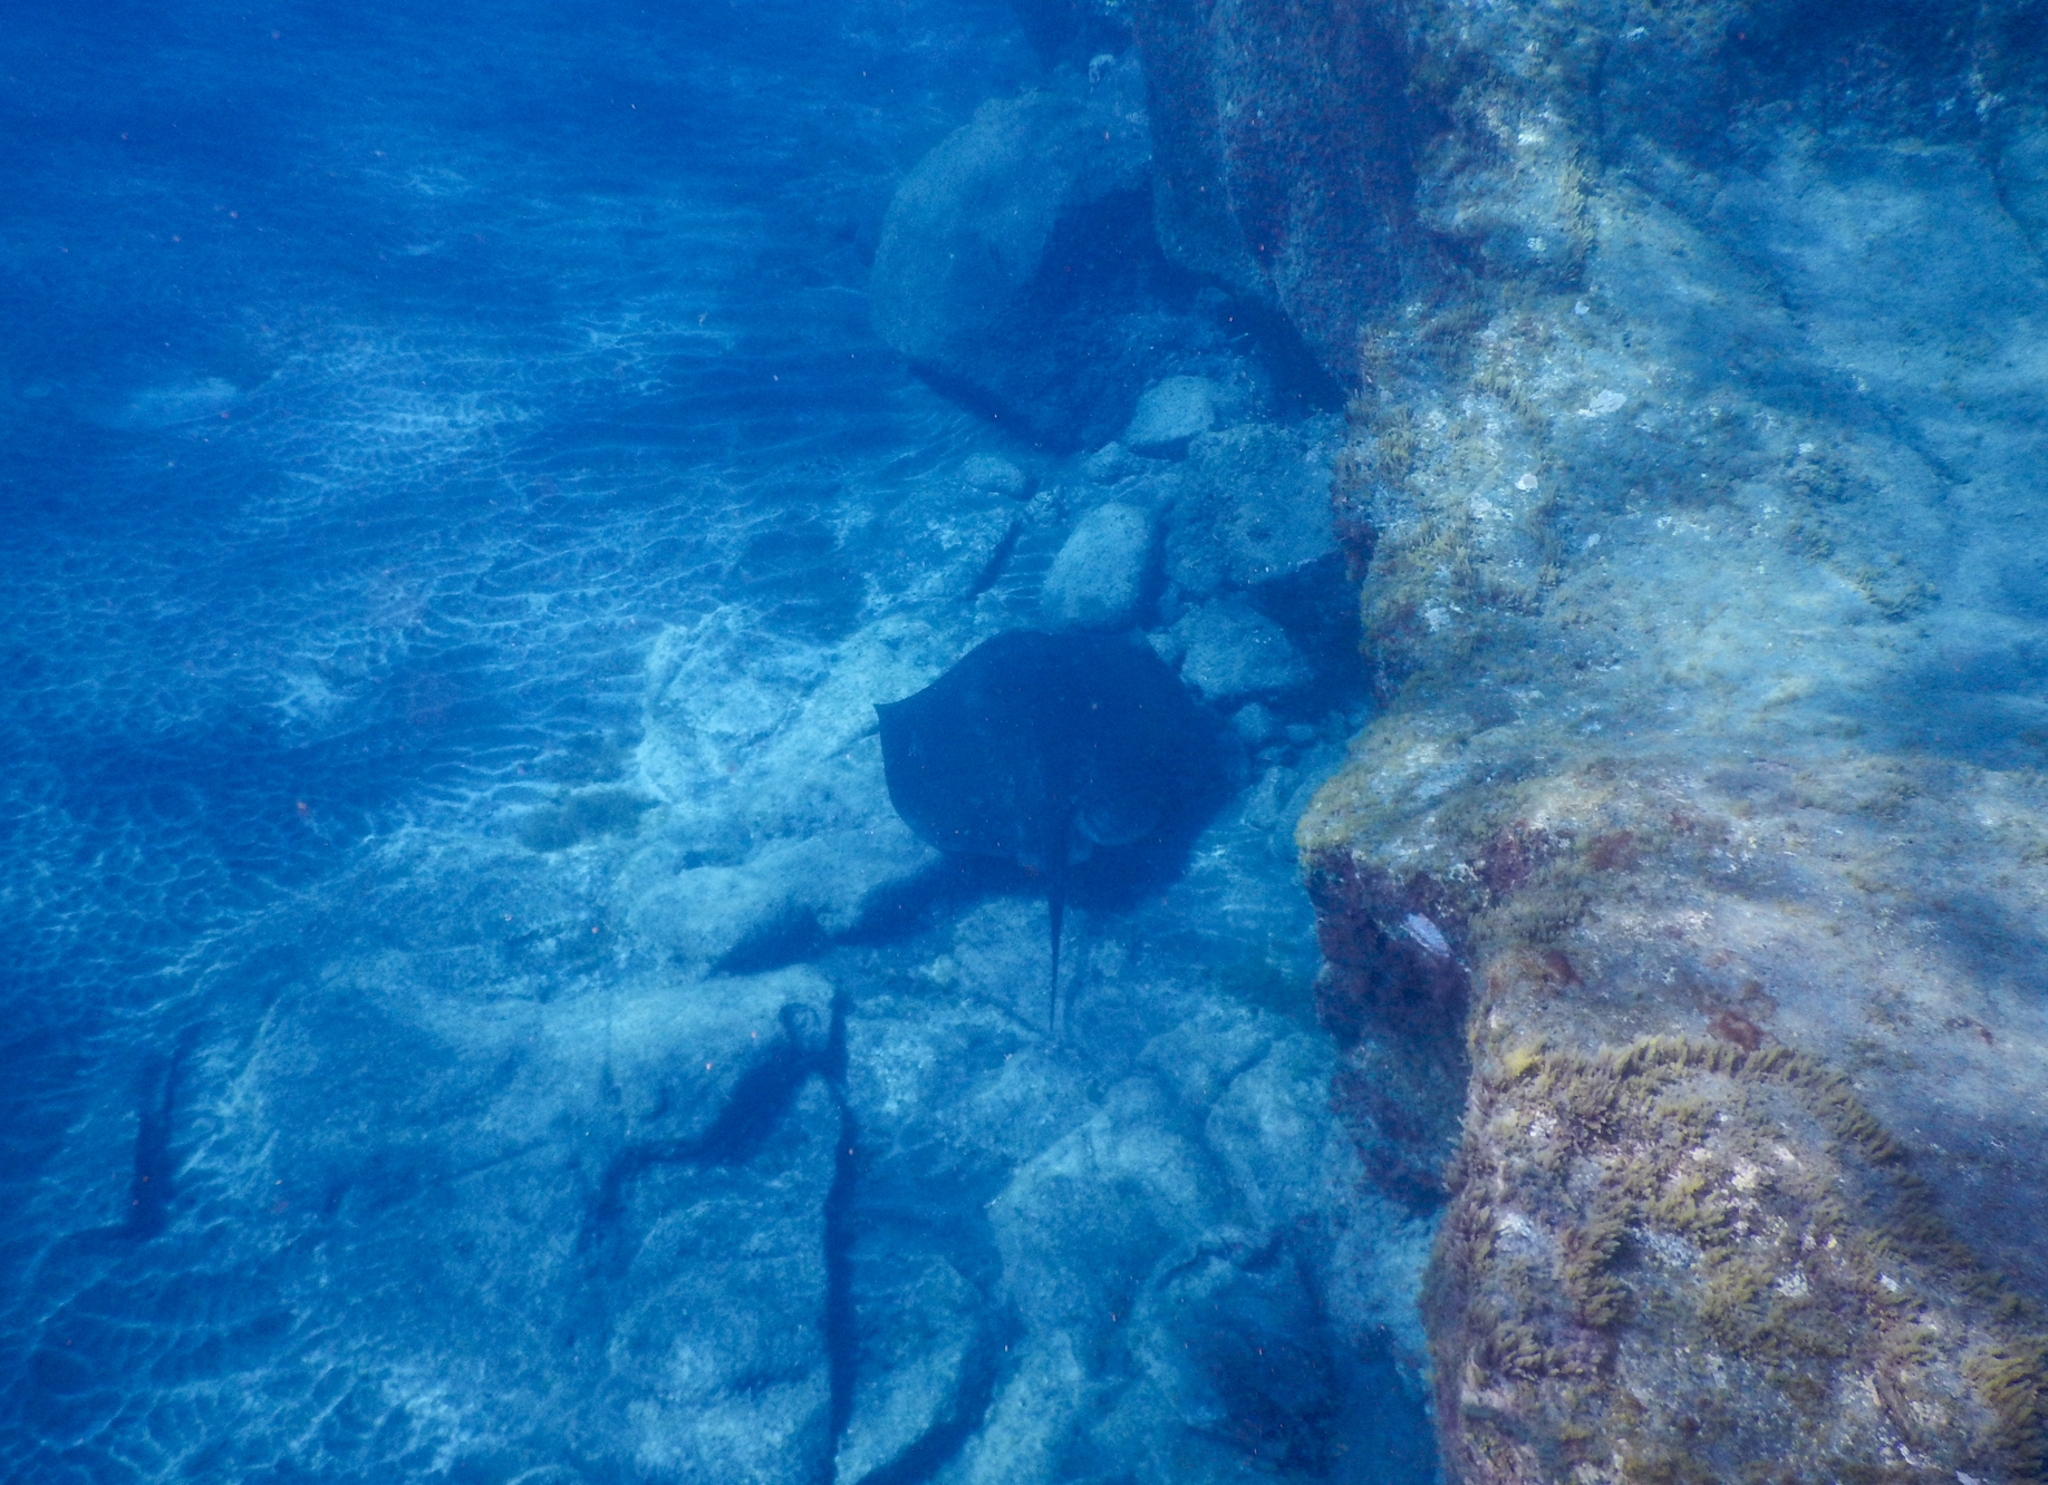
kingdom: Animalia
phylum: Chordata
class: Elasmobranchii
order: Myliobatiformes
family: Dasyatidae
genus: Taeniura
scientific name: Taeniura grabata
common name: Round stingray
